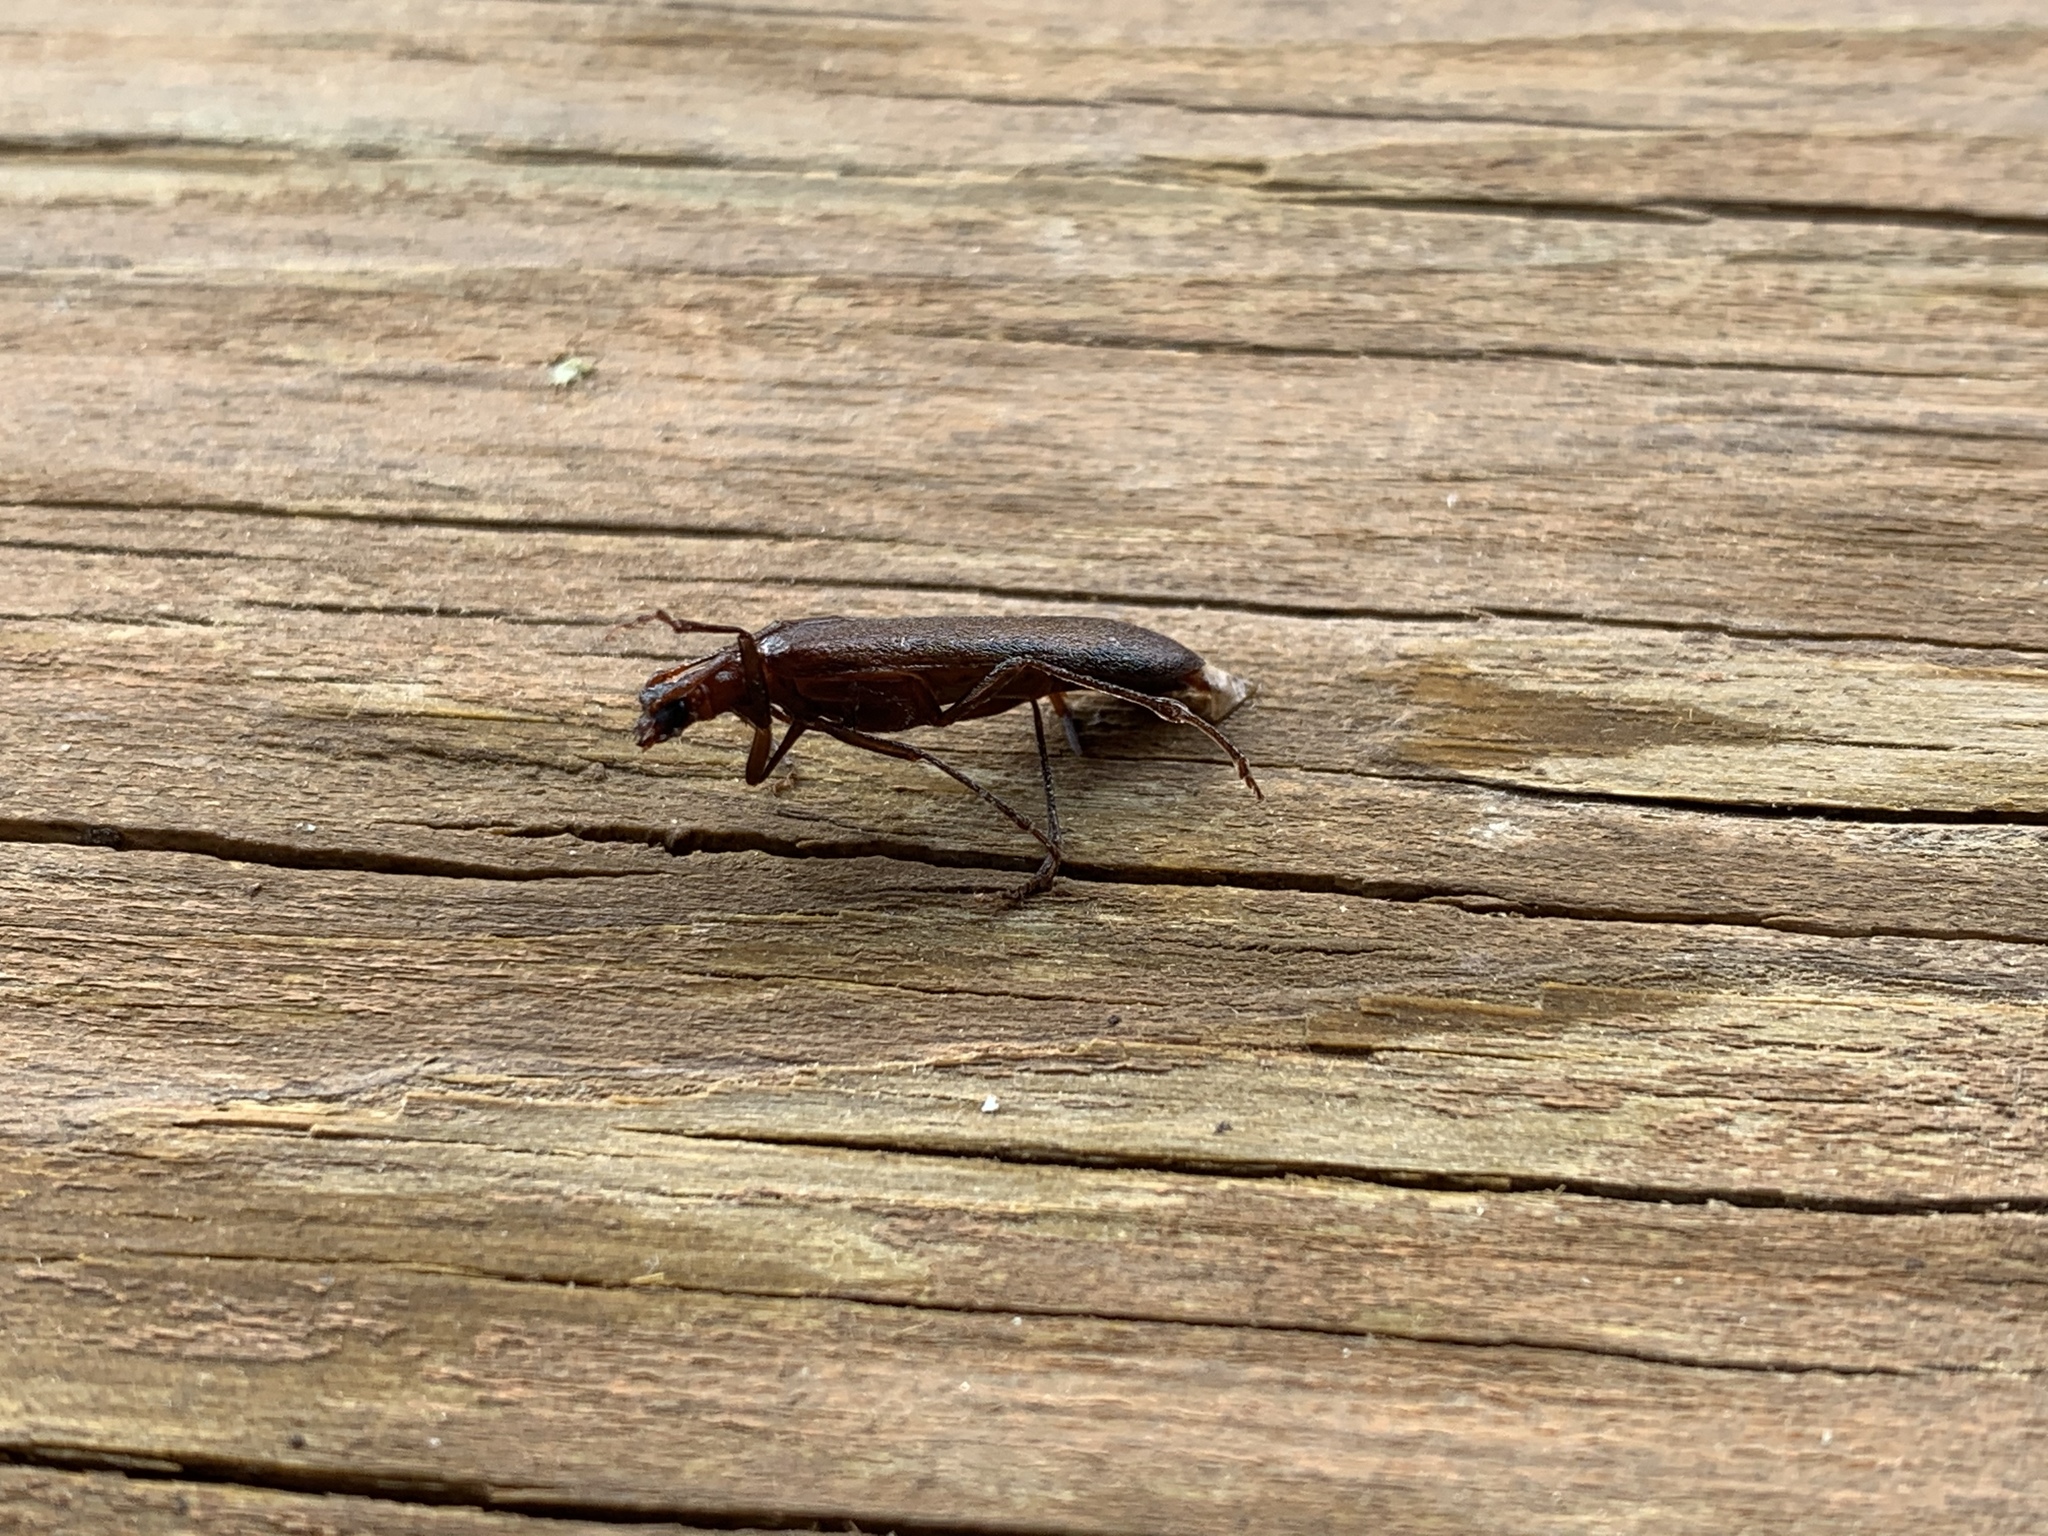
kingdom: Animalia
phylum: Arthropoda
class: Insecta
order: Coleoptera
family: Oedemeridae
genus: Calopus
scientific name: Calopus angustus
